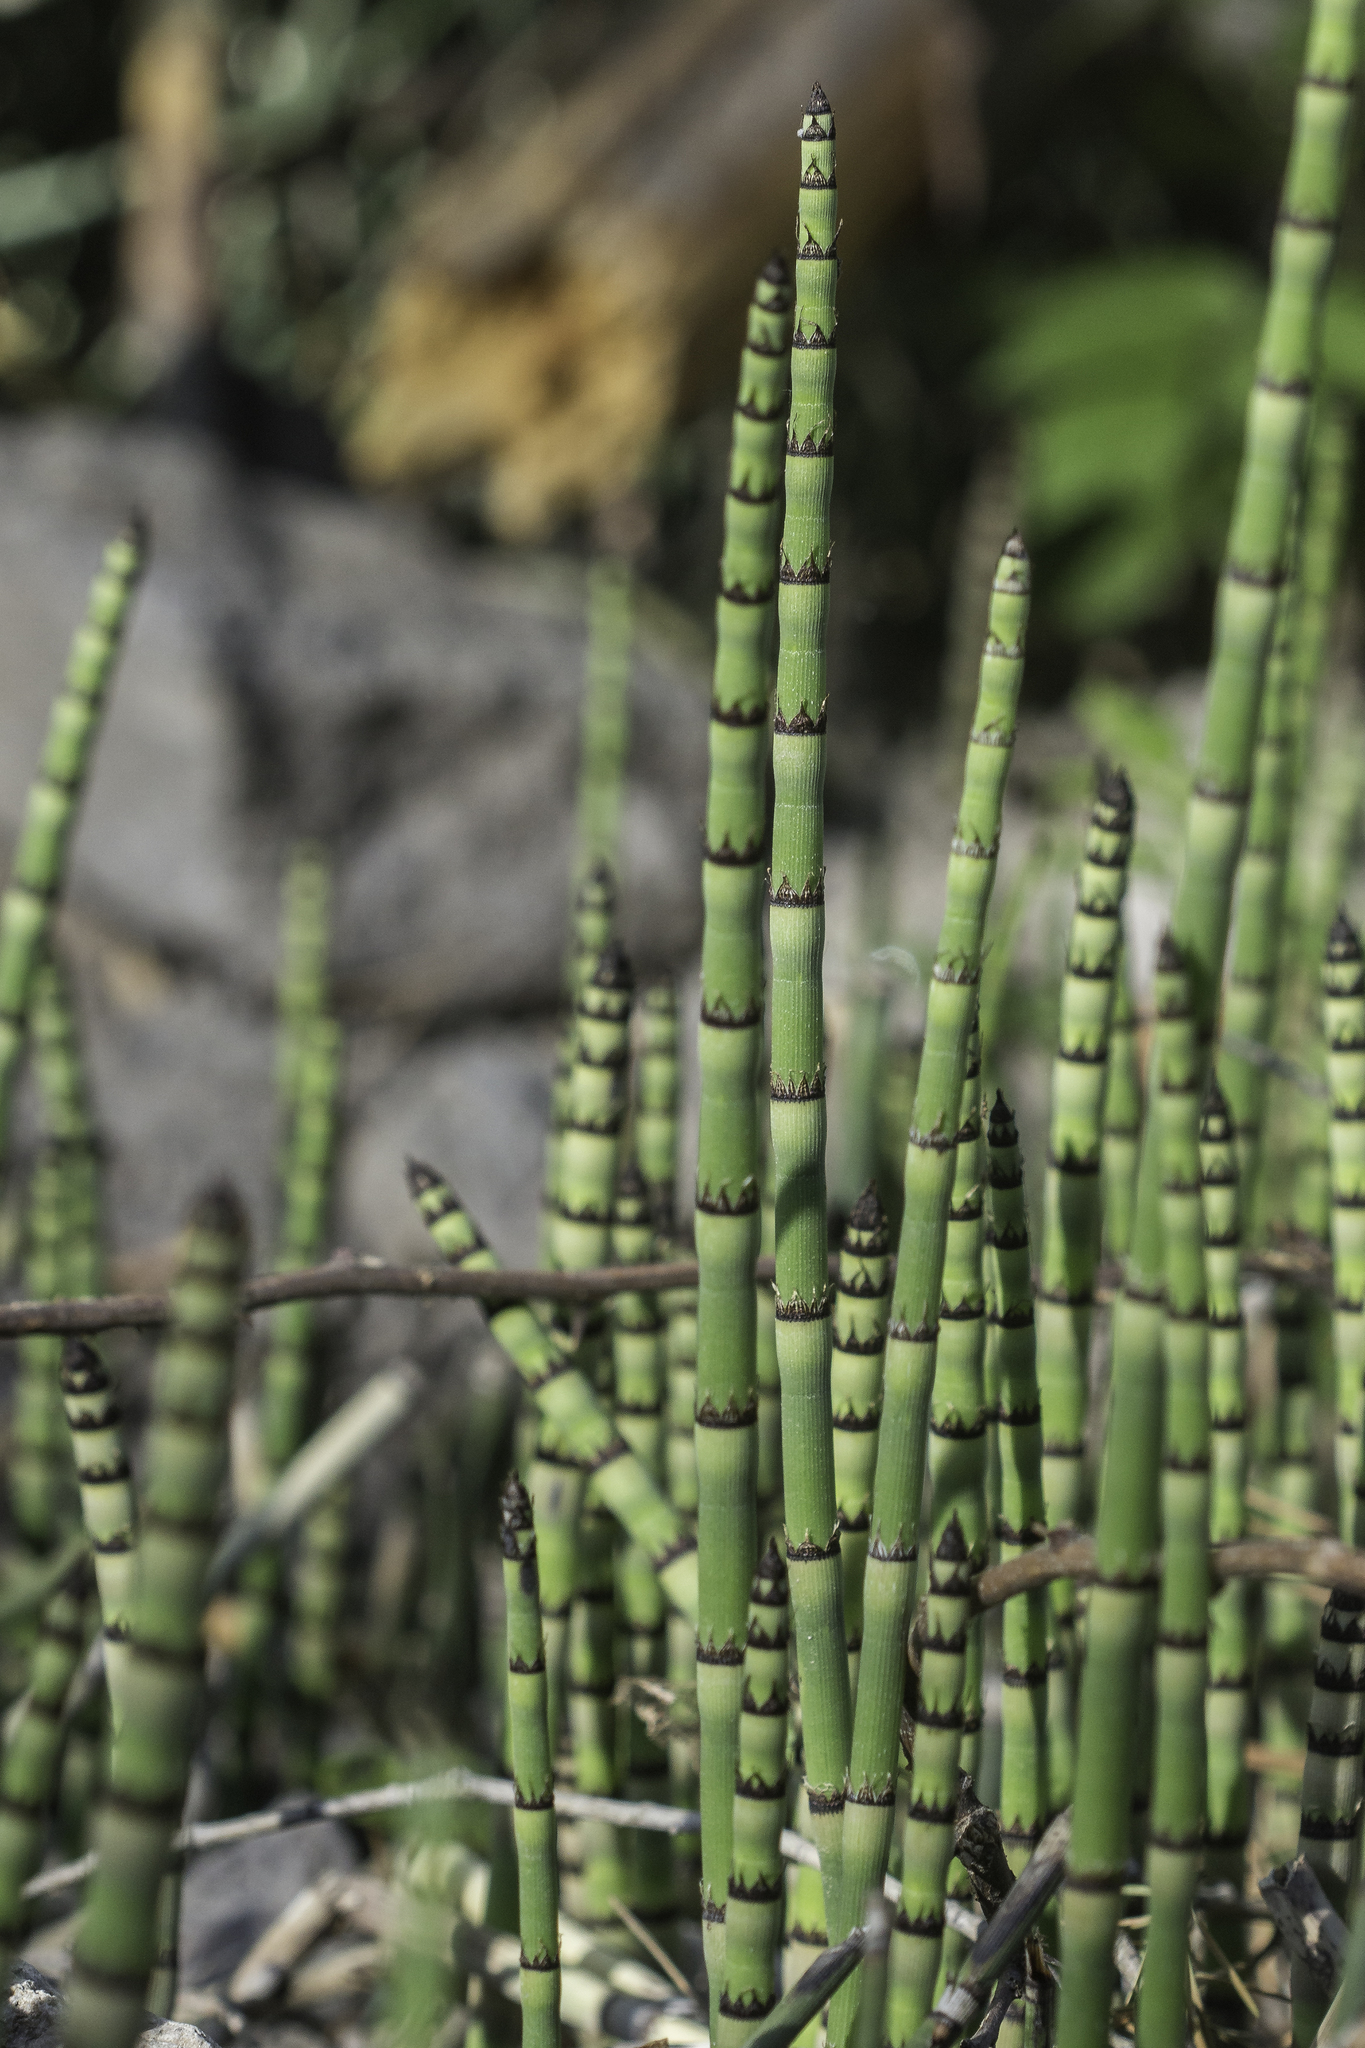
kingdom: Plantae
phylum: Tracheophyta
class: Polypodiopsida
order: Equisetales
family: Equisetaceae
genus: Equisetum
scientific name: Equisetum hyemale
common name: Rough horsetail
